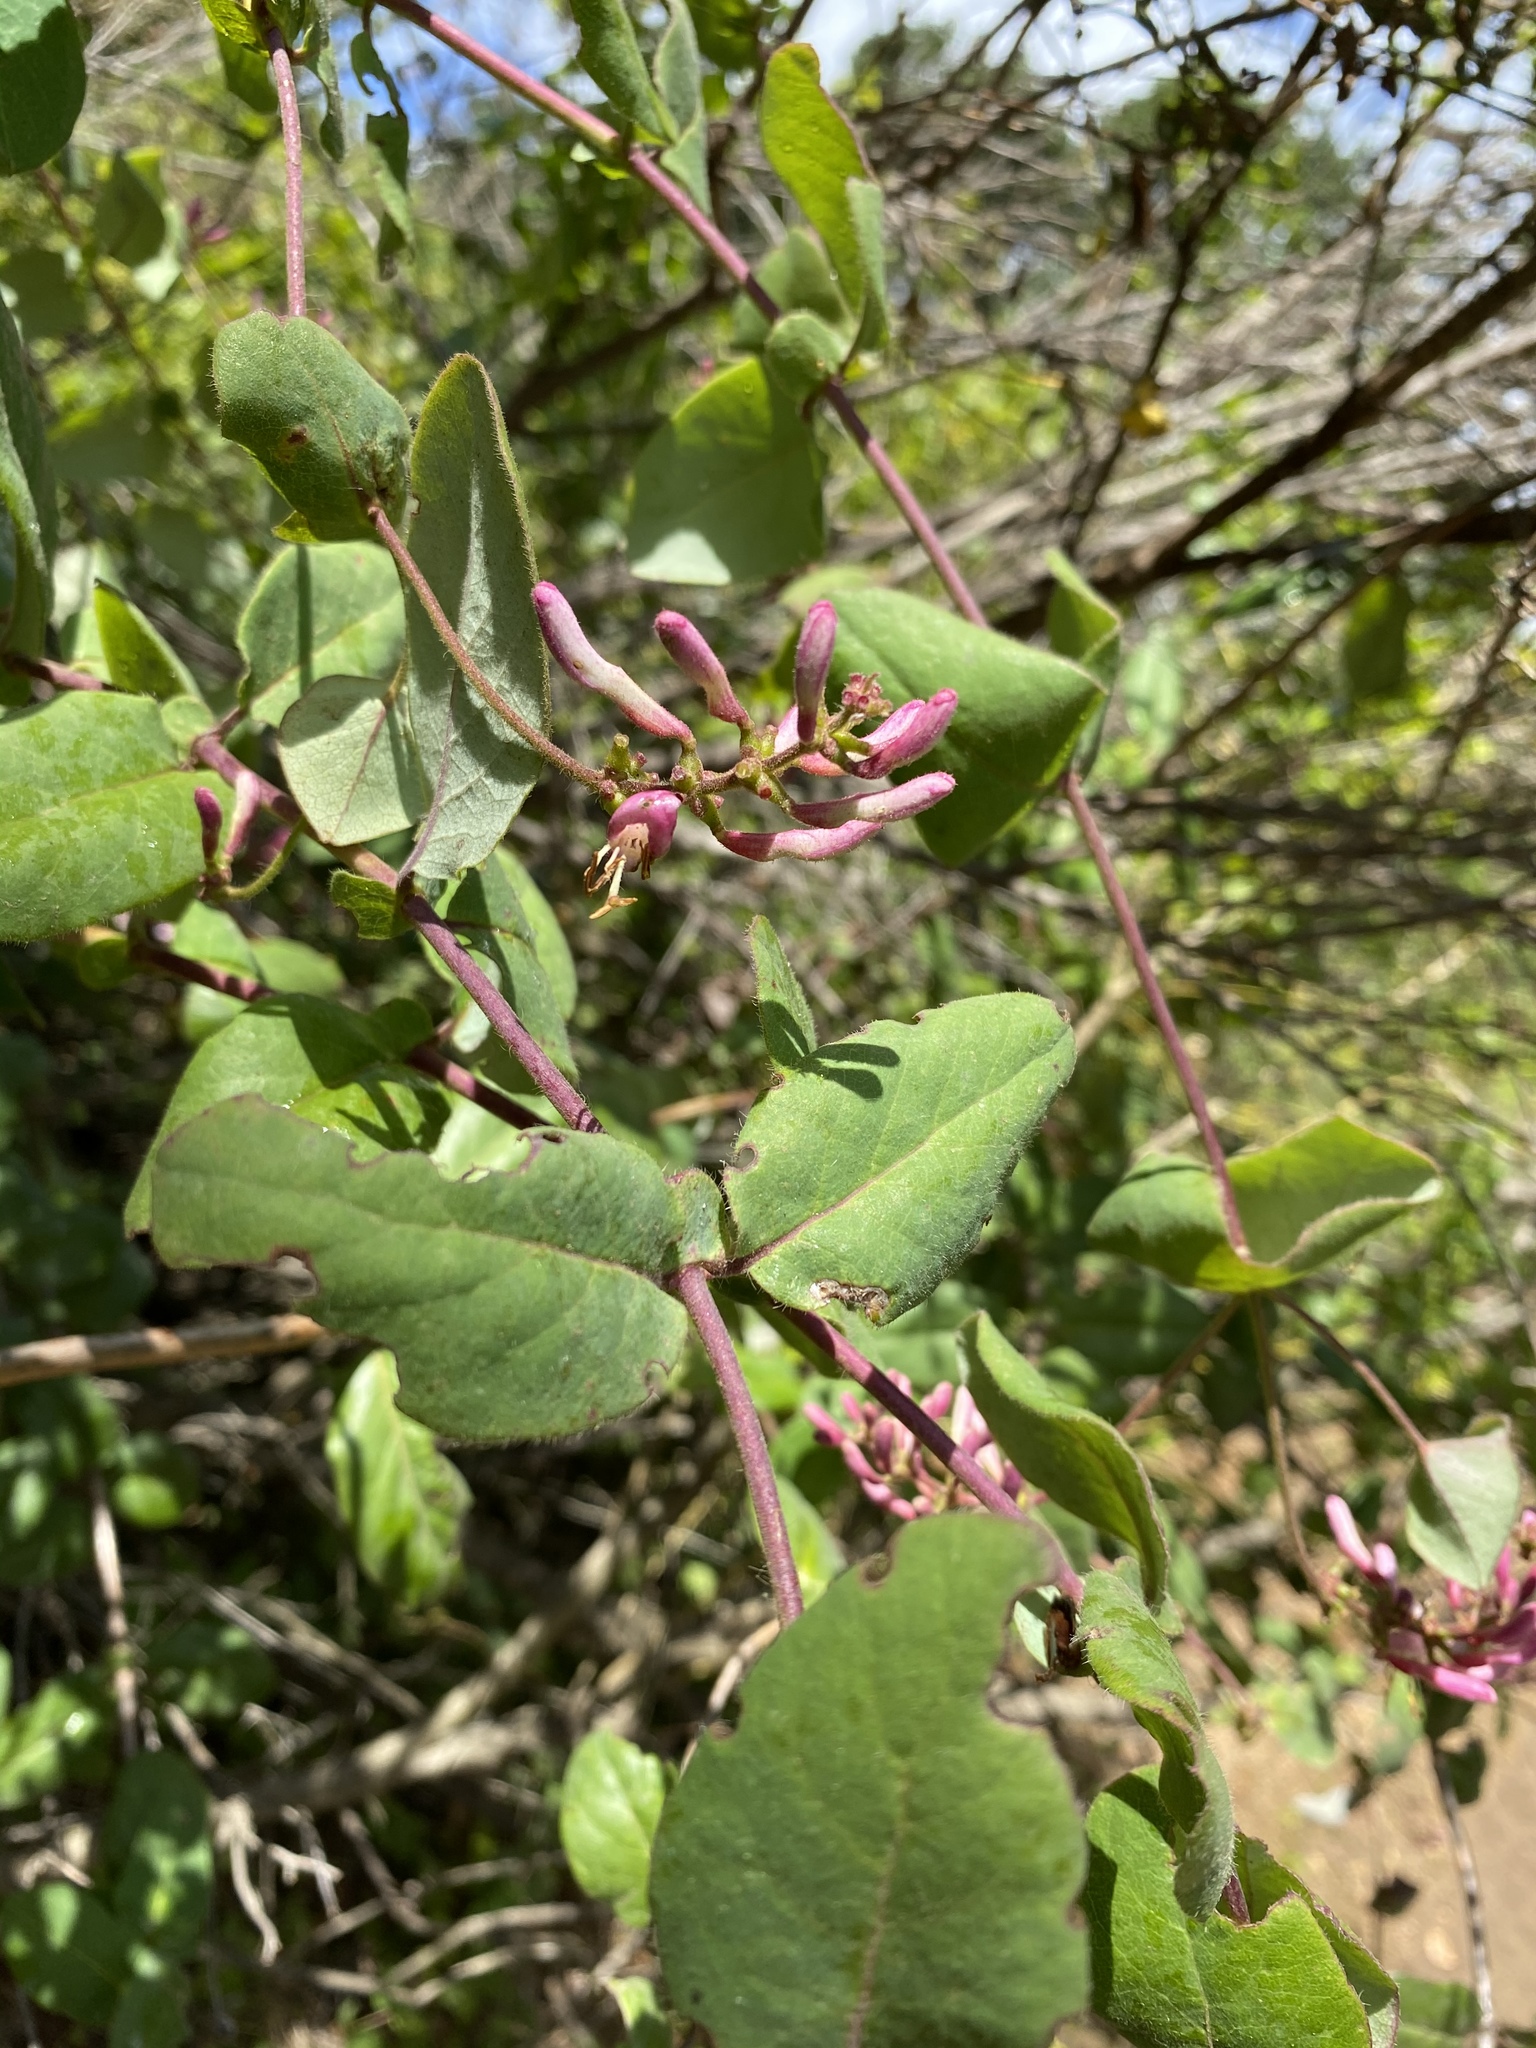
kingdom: Plantae
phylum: Tracheophyta
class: Magnoliopsida
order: Dipsacales
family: Caprifoliaceae
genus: Lonicera
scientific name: Lonicera hispidula
